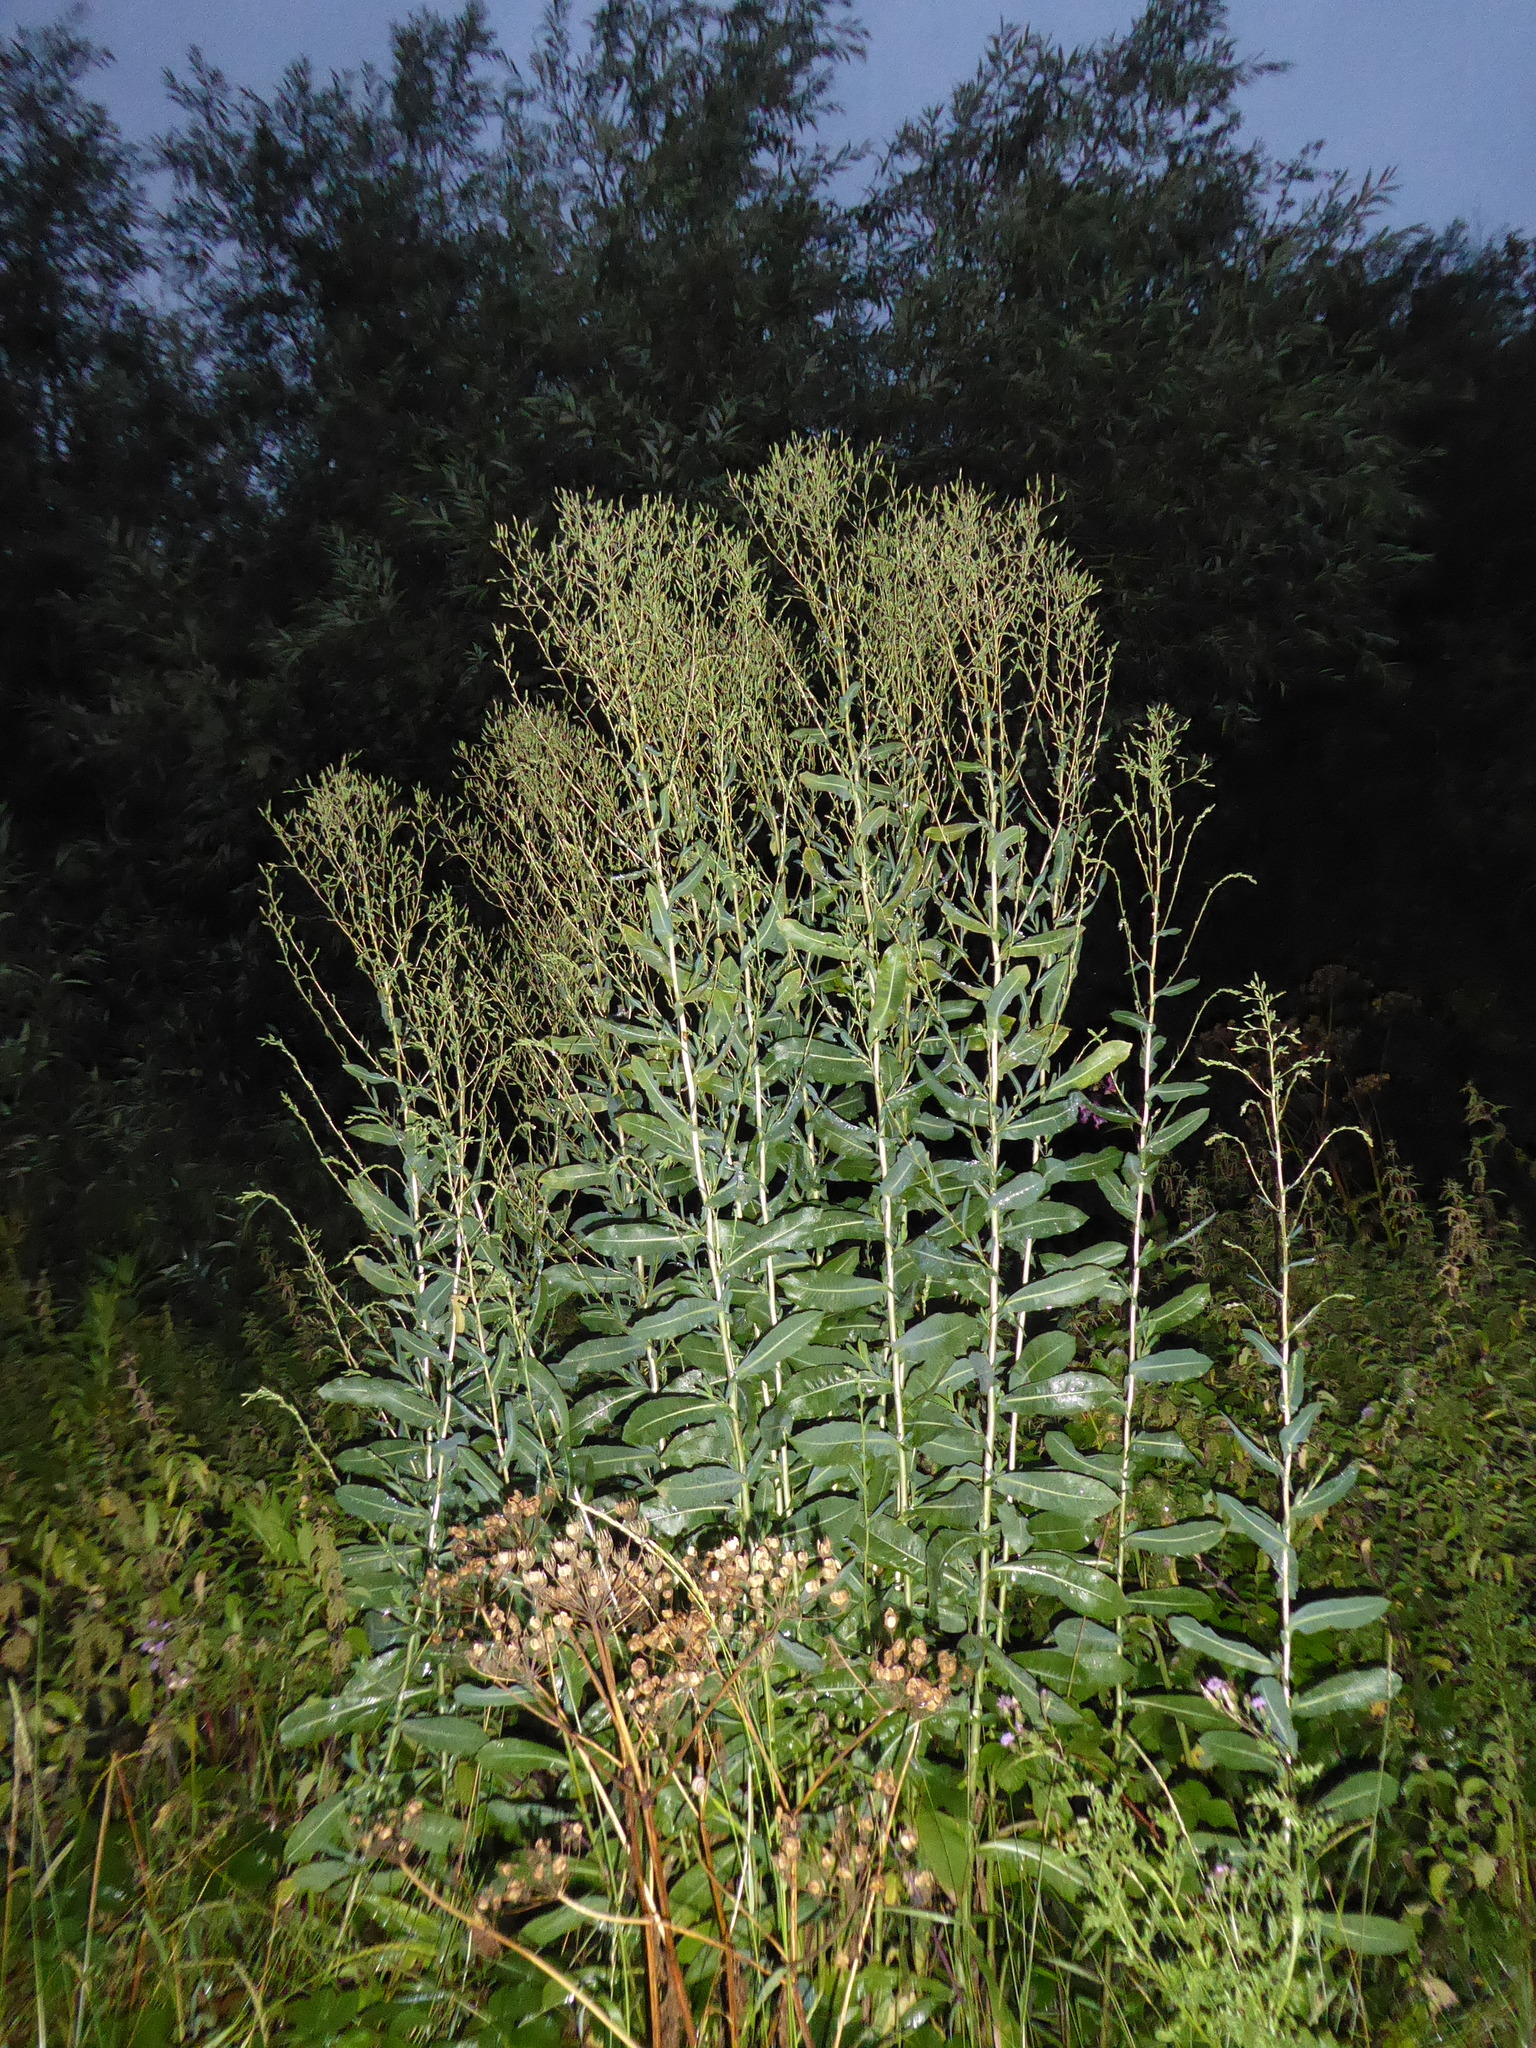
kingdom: Plantae
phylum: Tracheophyta
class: Magnoliopsida
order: Asterales
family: Asteraceae
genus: Lactuca
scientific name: Lactuca serriola
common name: Prickly lettuce
